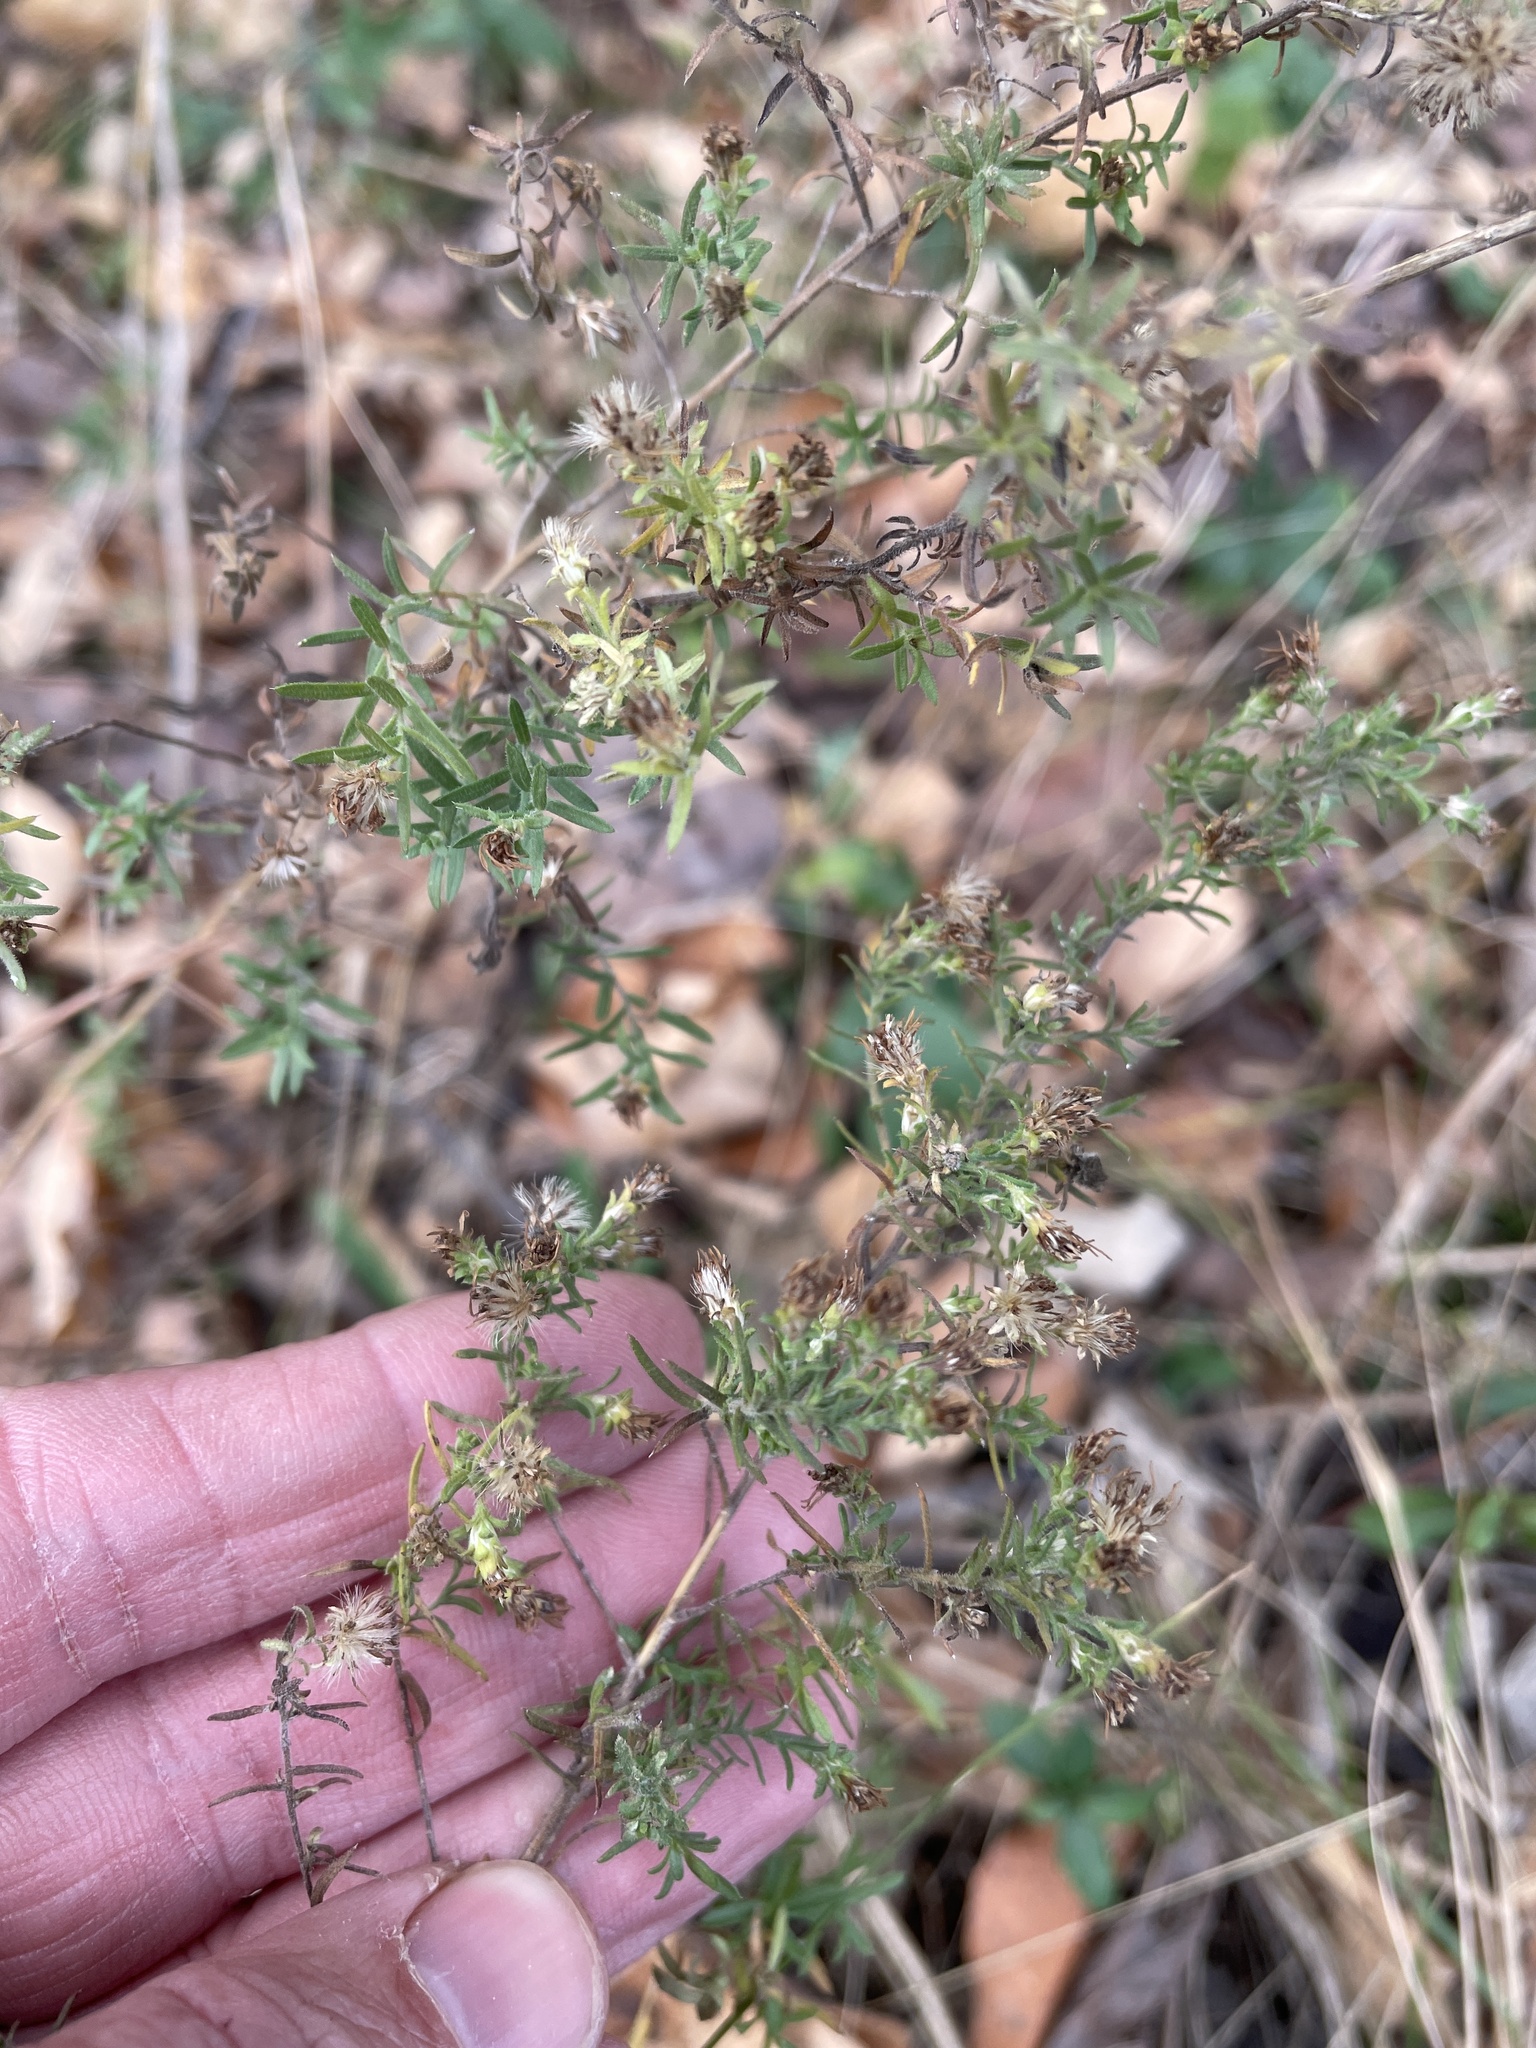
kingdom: Plantae
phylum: Tracheophyta
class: Magnoliopsida
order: Asterales
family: Asteraceae
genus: Symphyotrichum
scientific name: Symphyotrichum ericoides
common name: Heath aster
